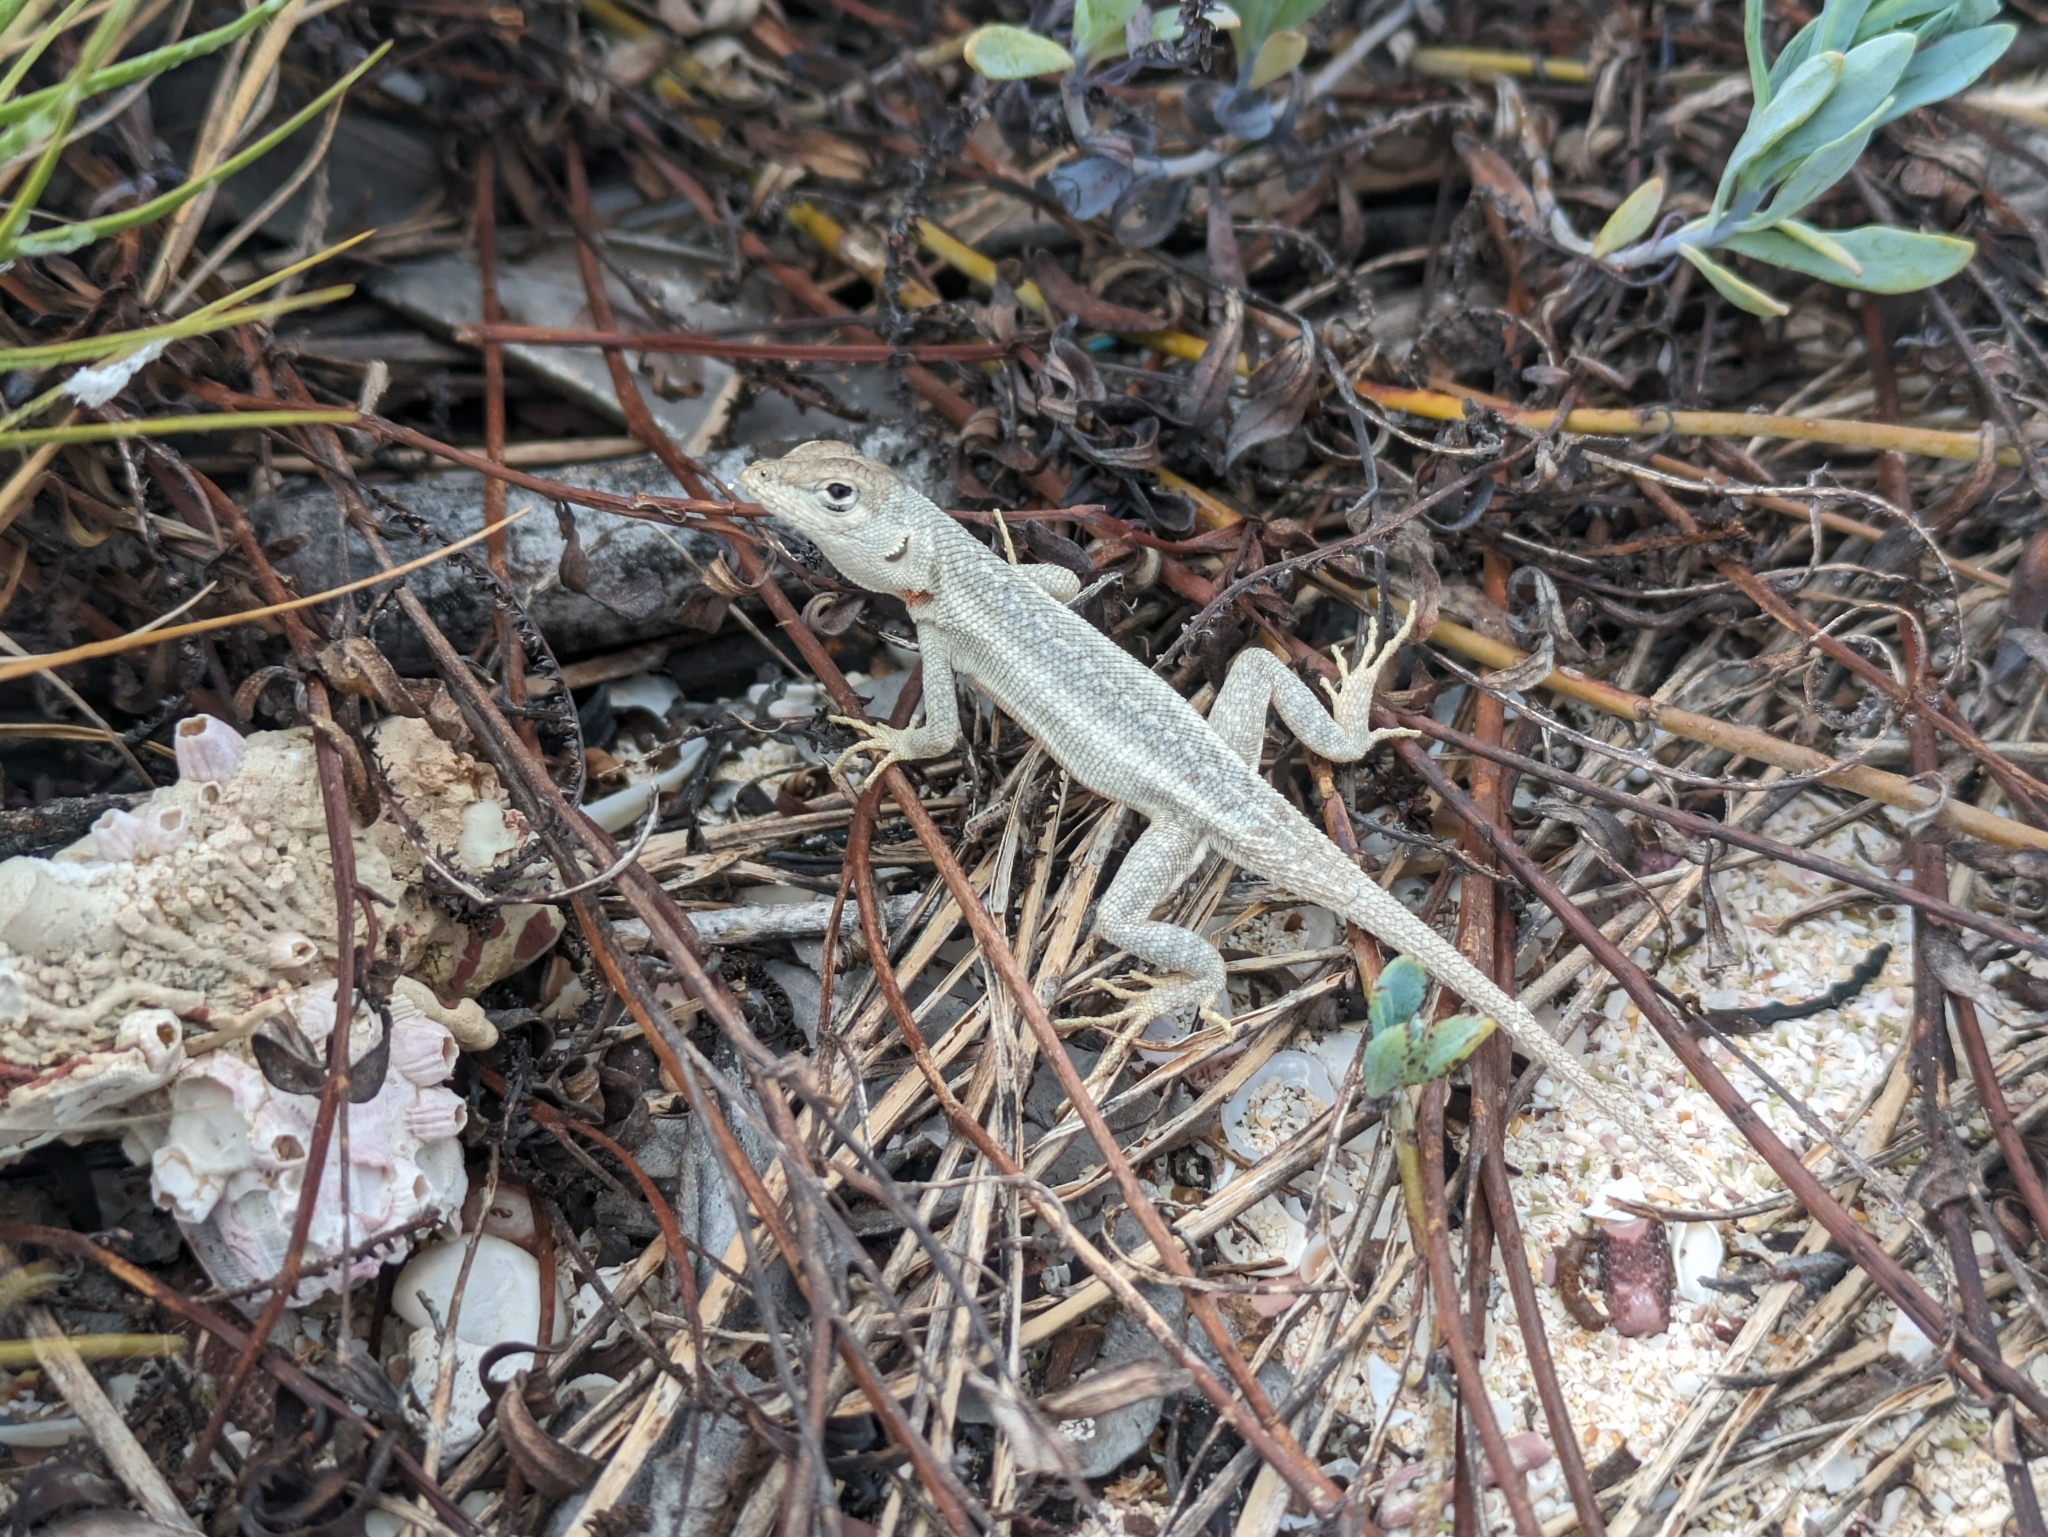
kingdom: Animalia
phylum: Chordata
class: Squamata
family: Tropiduridae
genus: Microlophus
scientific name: Microlophus bivittatus
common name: San cristobal lava lizard
